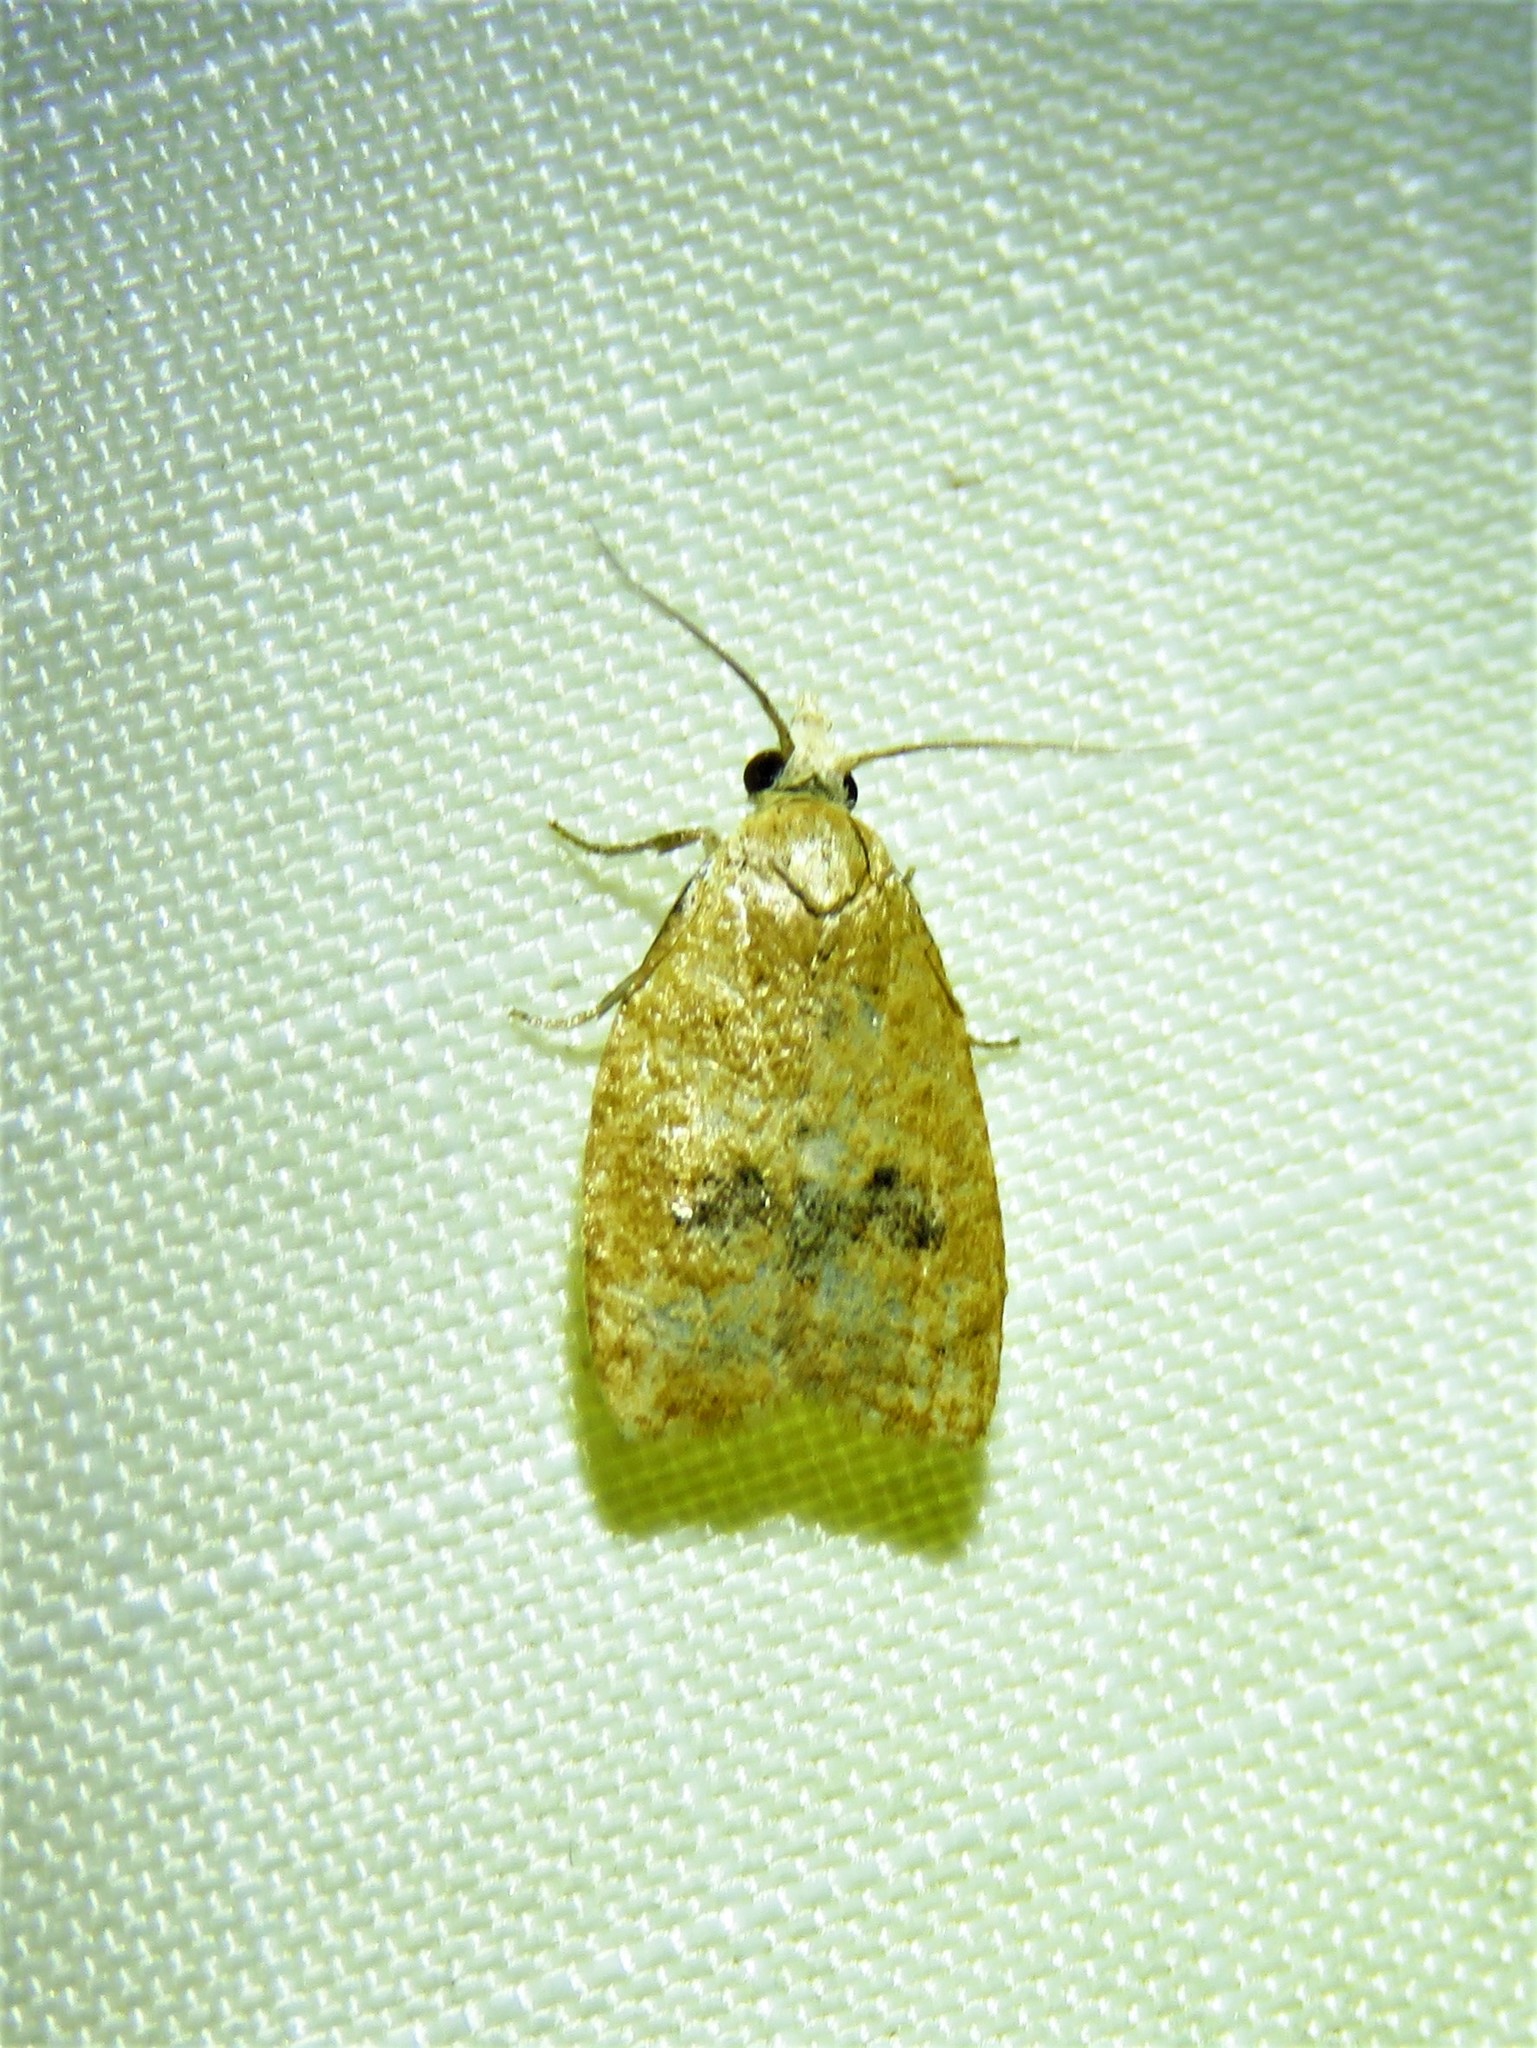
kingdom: Animalia
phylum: Arthropoda
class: Insecta
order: Lepidoptera
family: Tortricidae
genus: Sparganothoides
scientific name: Sparganothoides lentiginosana
